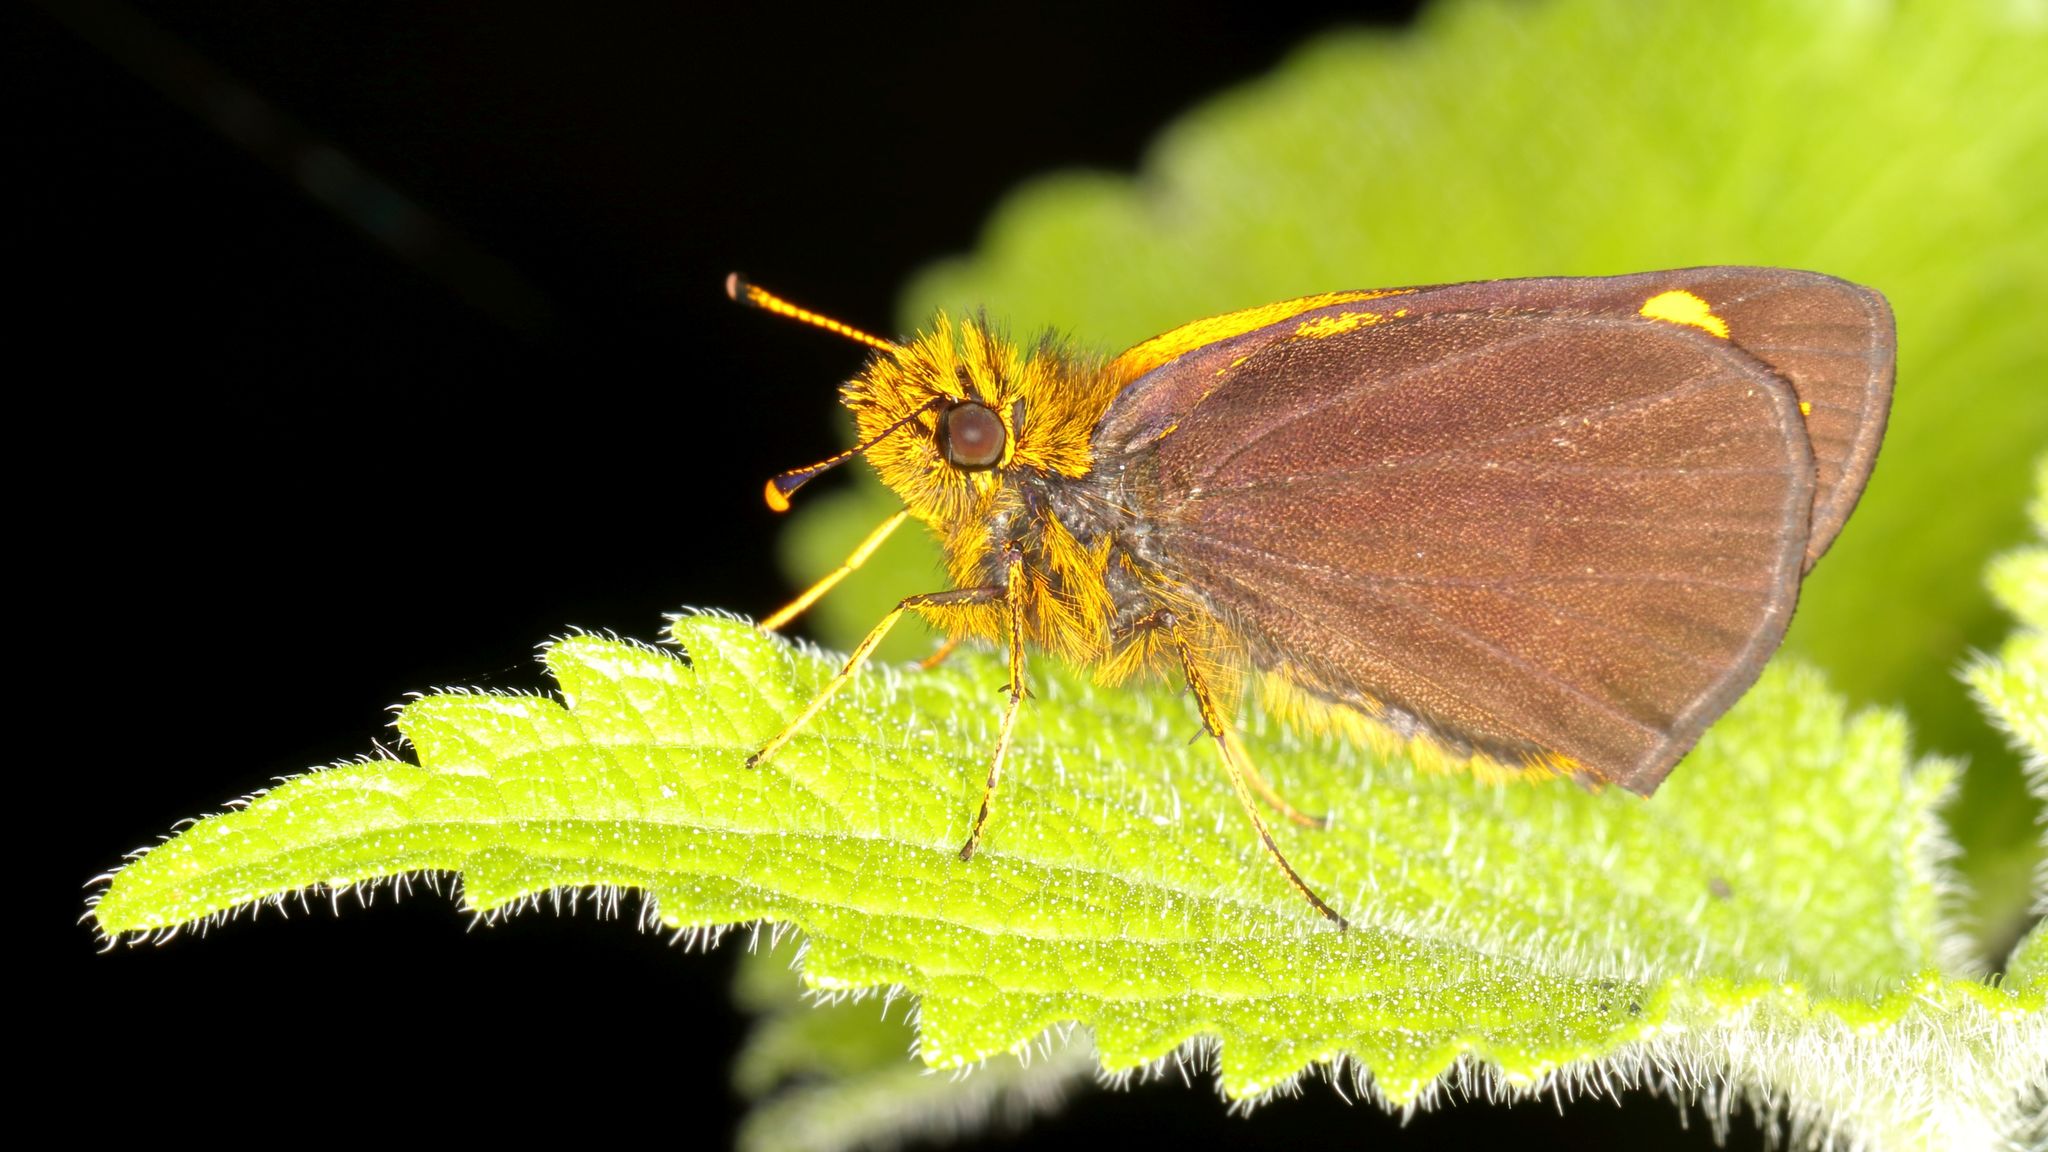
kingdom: Animalia
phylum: Arthropoda
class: Insecta
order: Lepidoptera
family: Hesperiidae
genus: Metisella
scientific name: Metisella metis
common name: Western gold-spotted sylph
